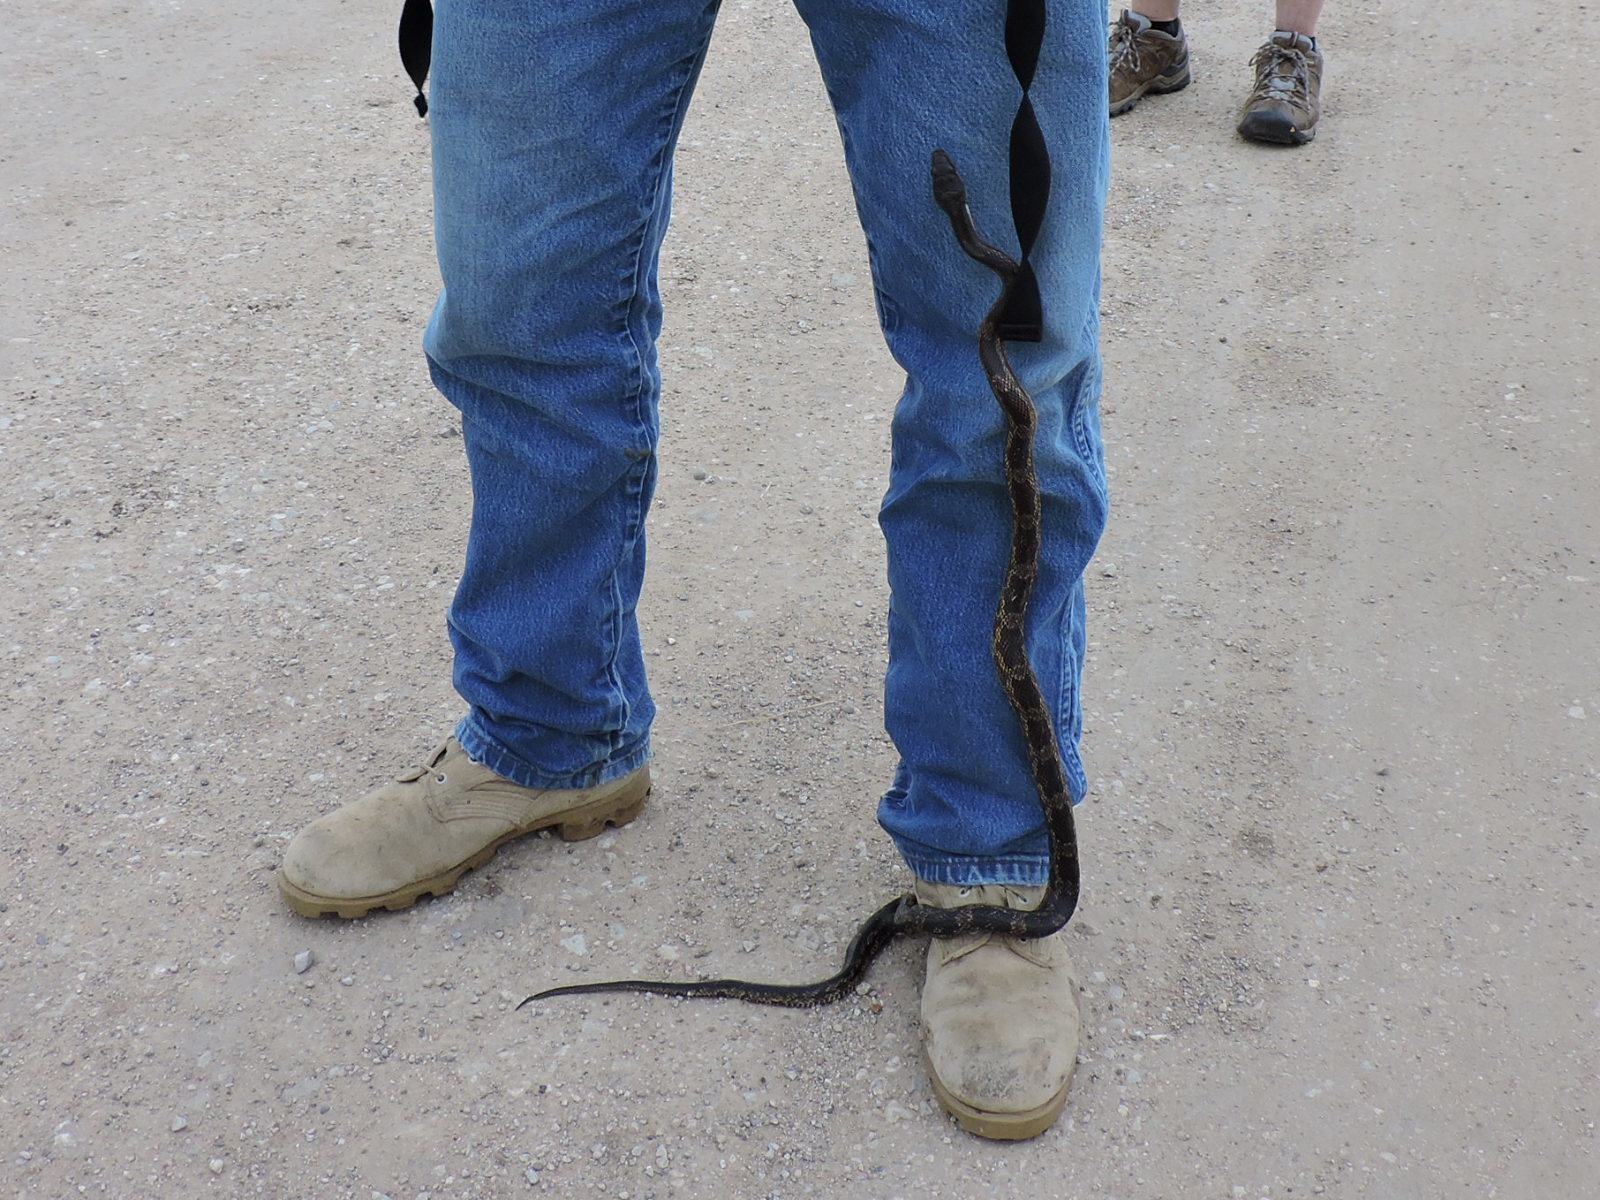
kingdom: Animalia
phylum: Chordata
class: Squamata
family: Colubridae
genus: Pantherophis
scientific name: Pantherophis obsoletus
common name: Black rat snake
